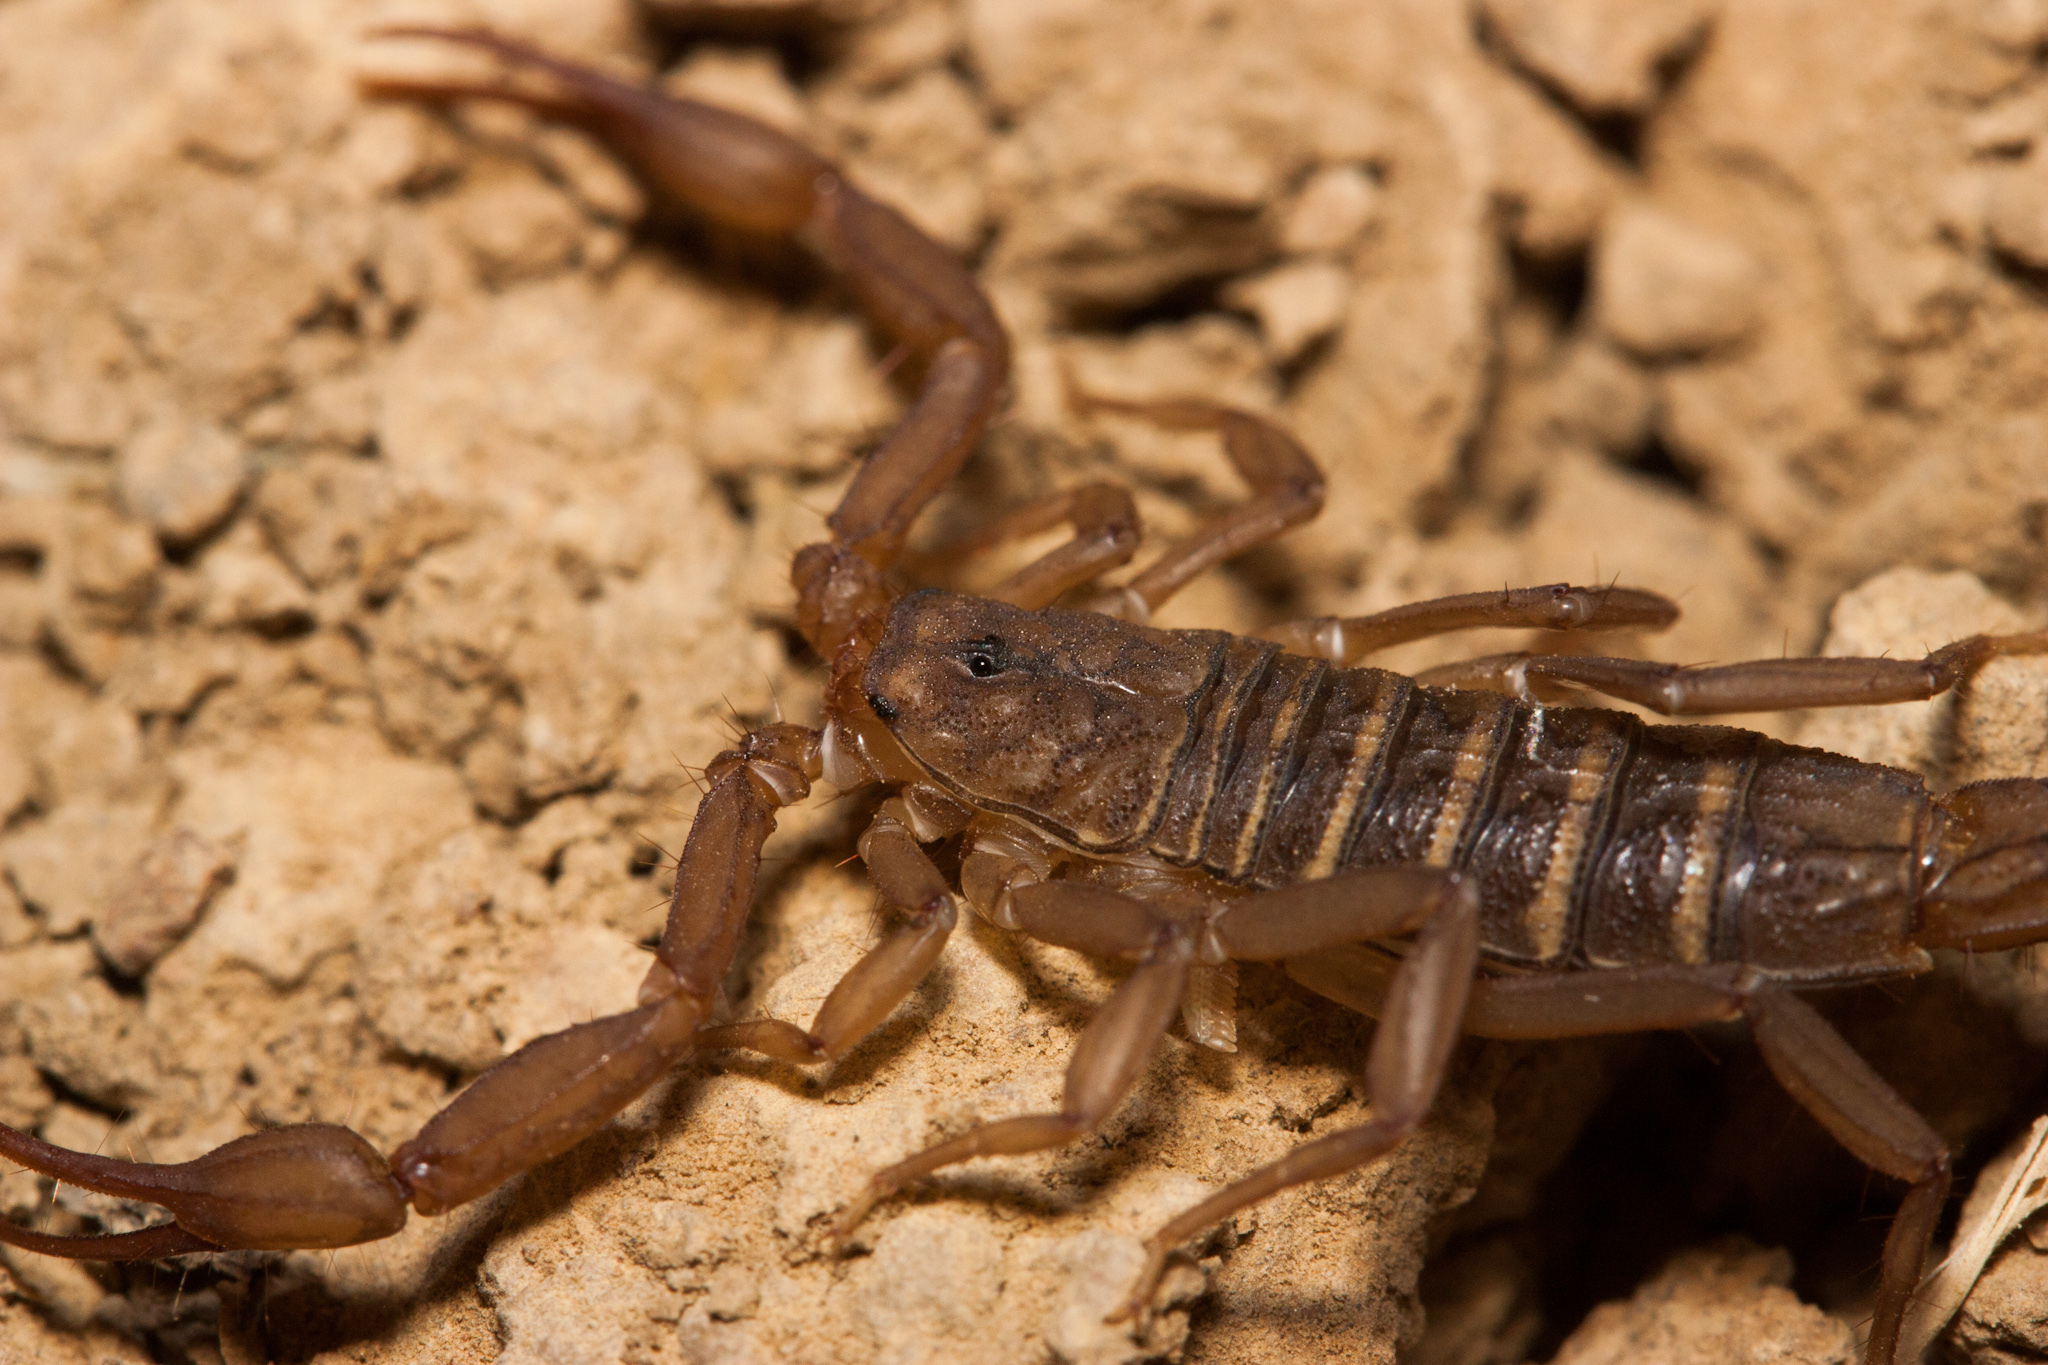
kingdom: Animalia
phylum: Arthropoda
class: Arachnida
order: Scorpiones
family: Vaejovidae
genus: Serradigitus
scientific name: Serradigitus gertschi
